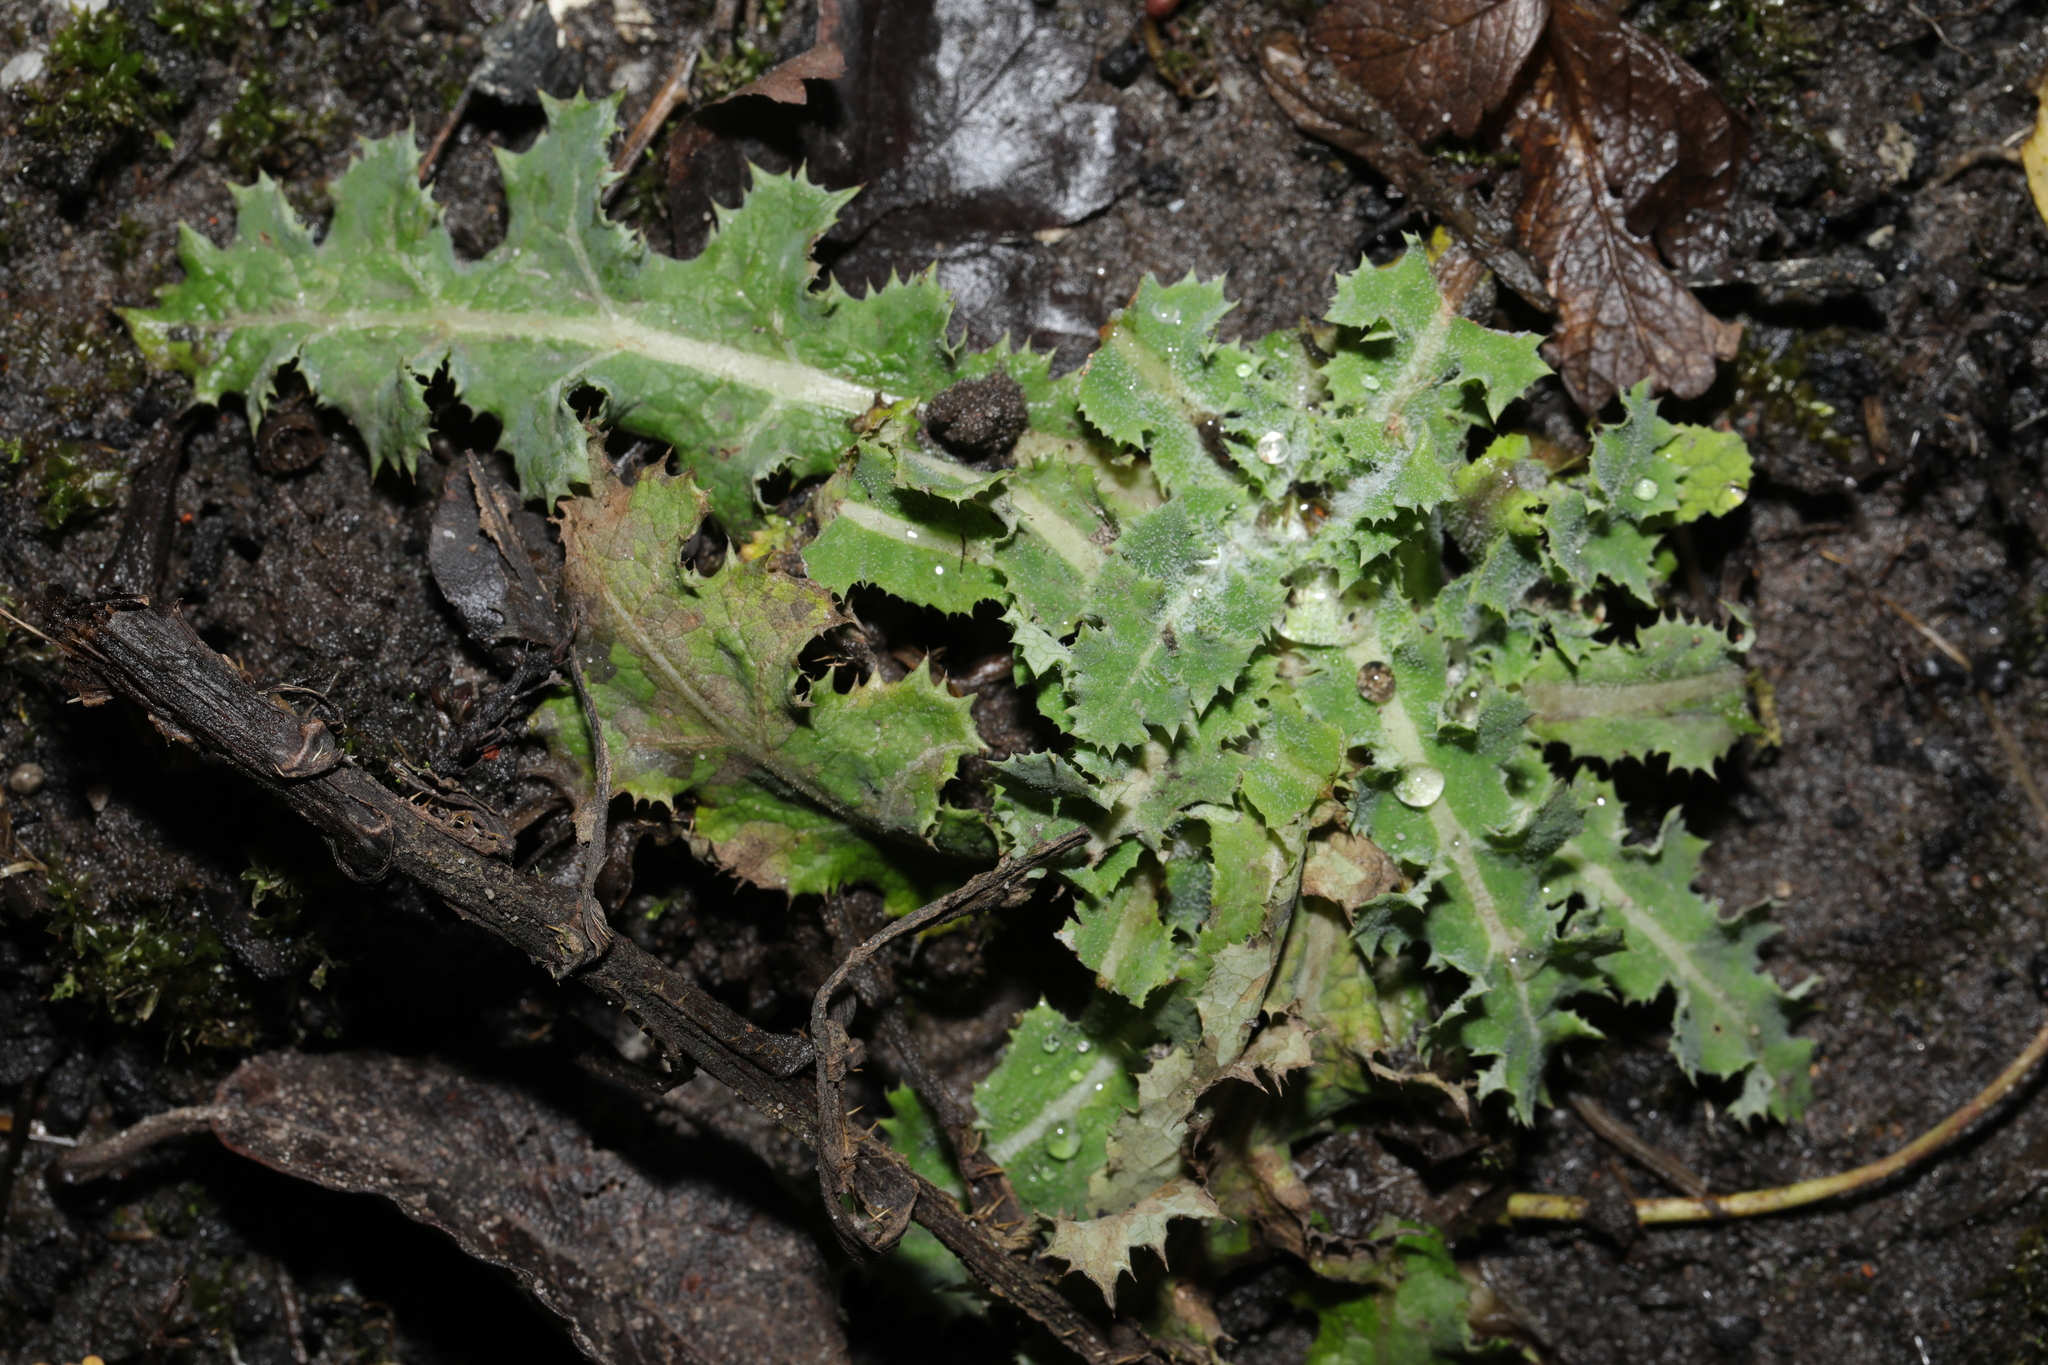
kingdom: Plantae
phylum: Tracheophyta
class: Magnoliopsida
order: Asterales
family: Asteraceae
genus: Sonchus
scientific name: Sonchus asper
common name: Prickly sow-thistle
